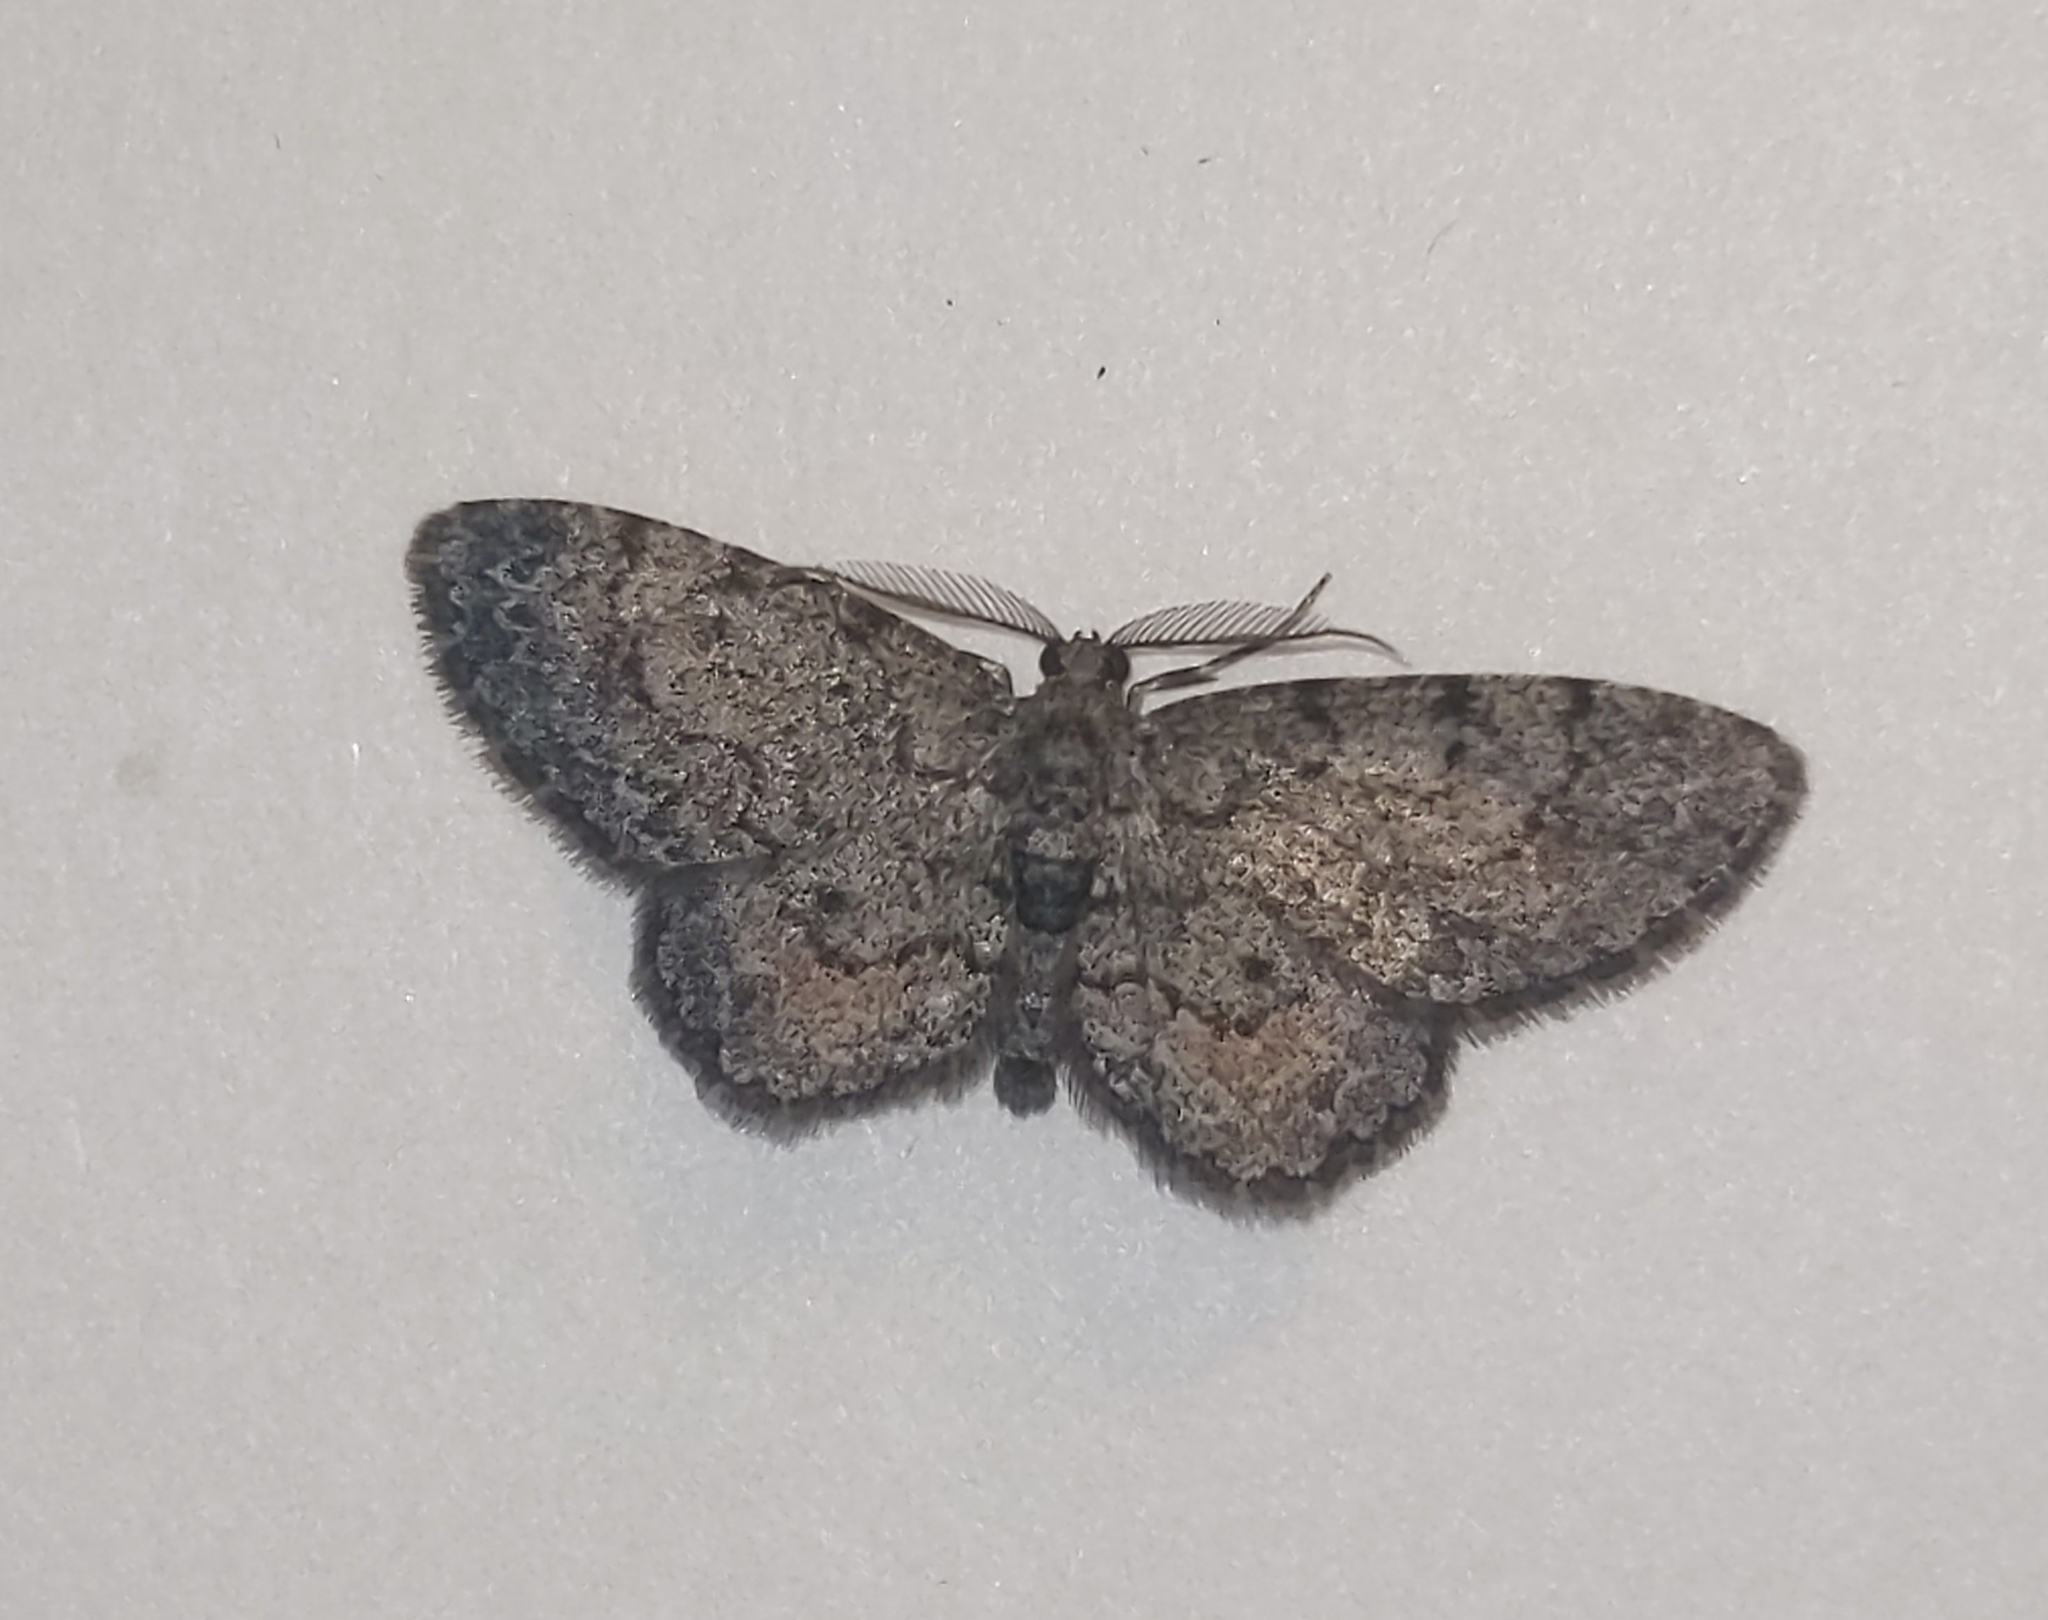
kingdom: Animalia
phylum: Arthropoda
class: Insecta
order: Lepidoptera
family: Geometridae
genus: Glenoides
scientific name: Glenoides texanaria
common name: Texas gray
